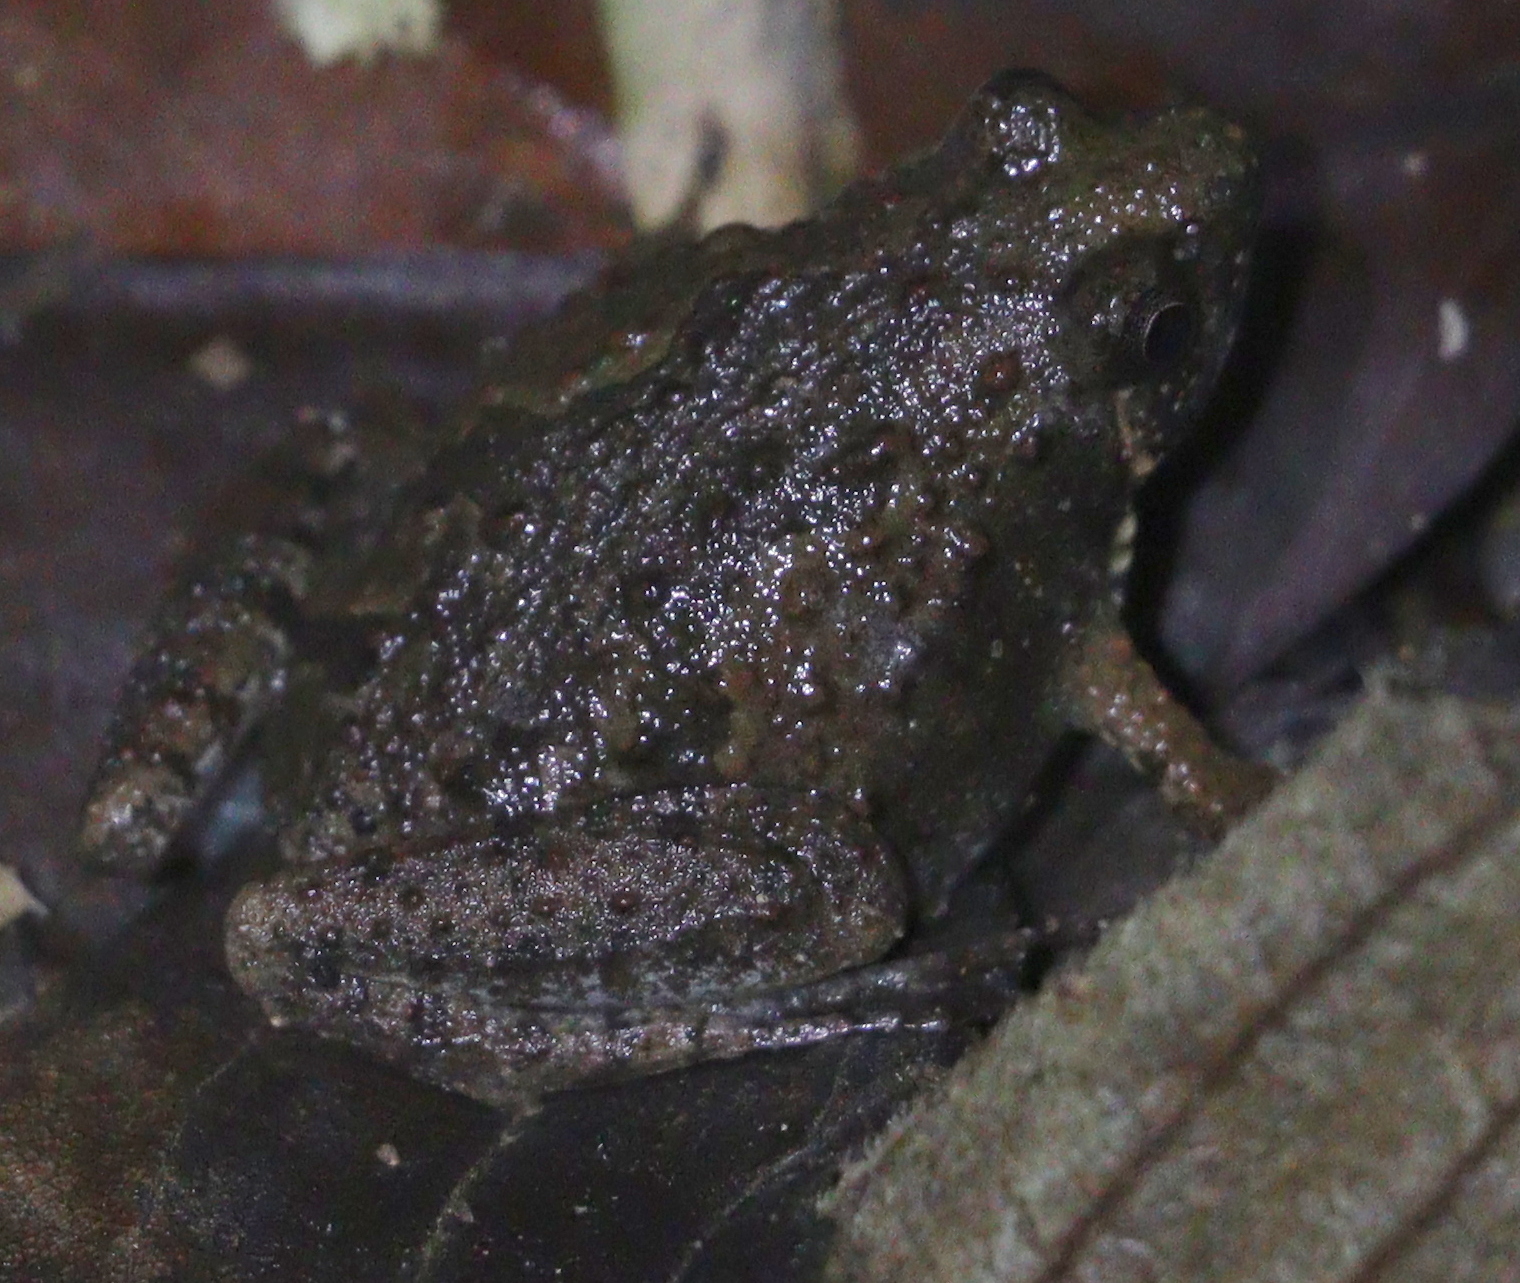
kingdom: Animalia
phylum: Chordata
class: Amphibia
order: Anura
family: Microhylidae
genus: Microhyla
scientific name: Microhyla butleri
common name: Butler’s rice frog,painted chorus frog,tubercled pygmy frog
